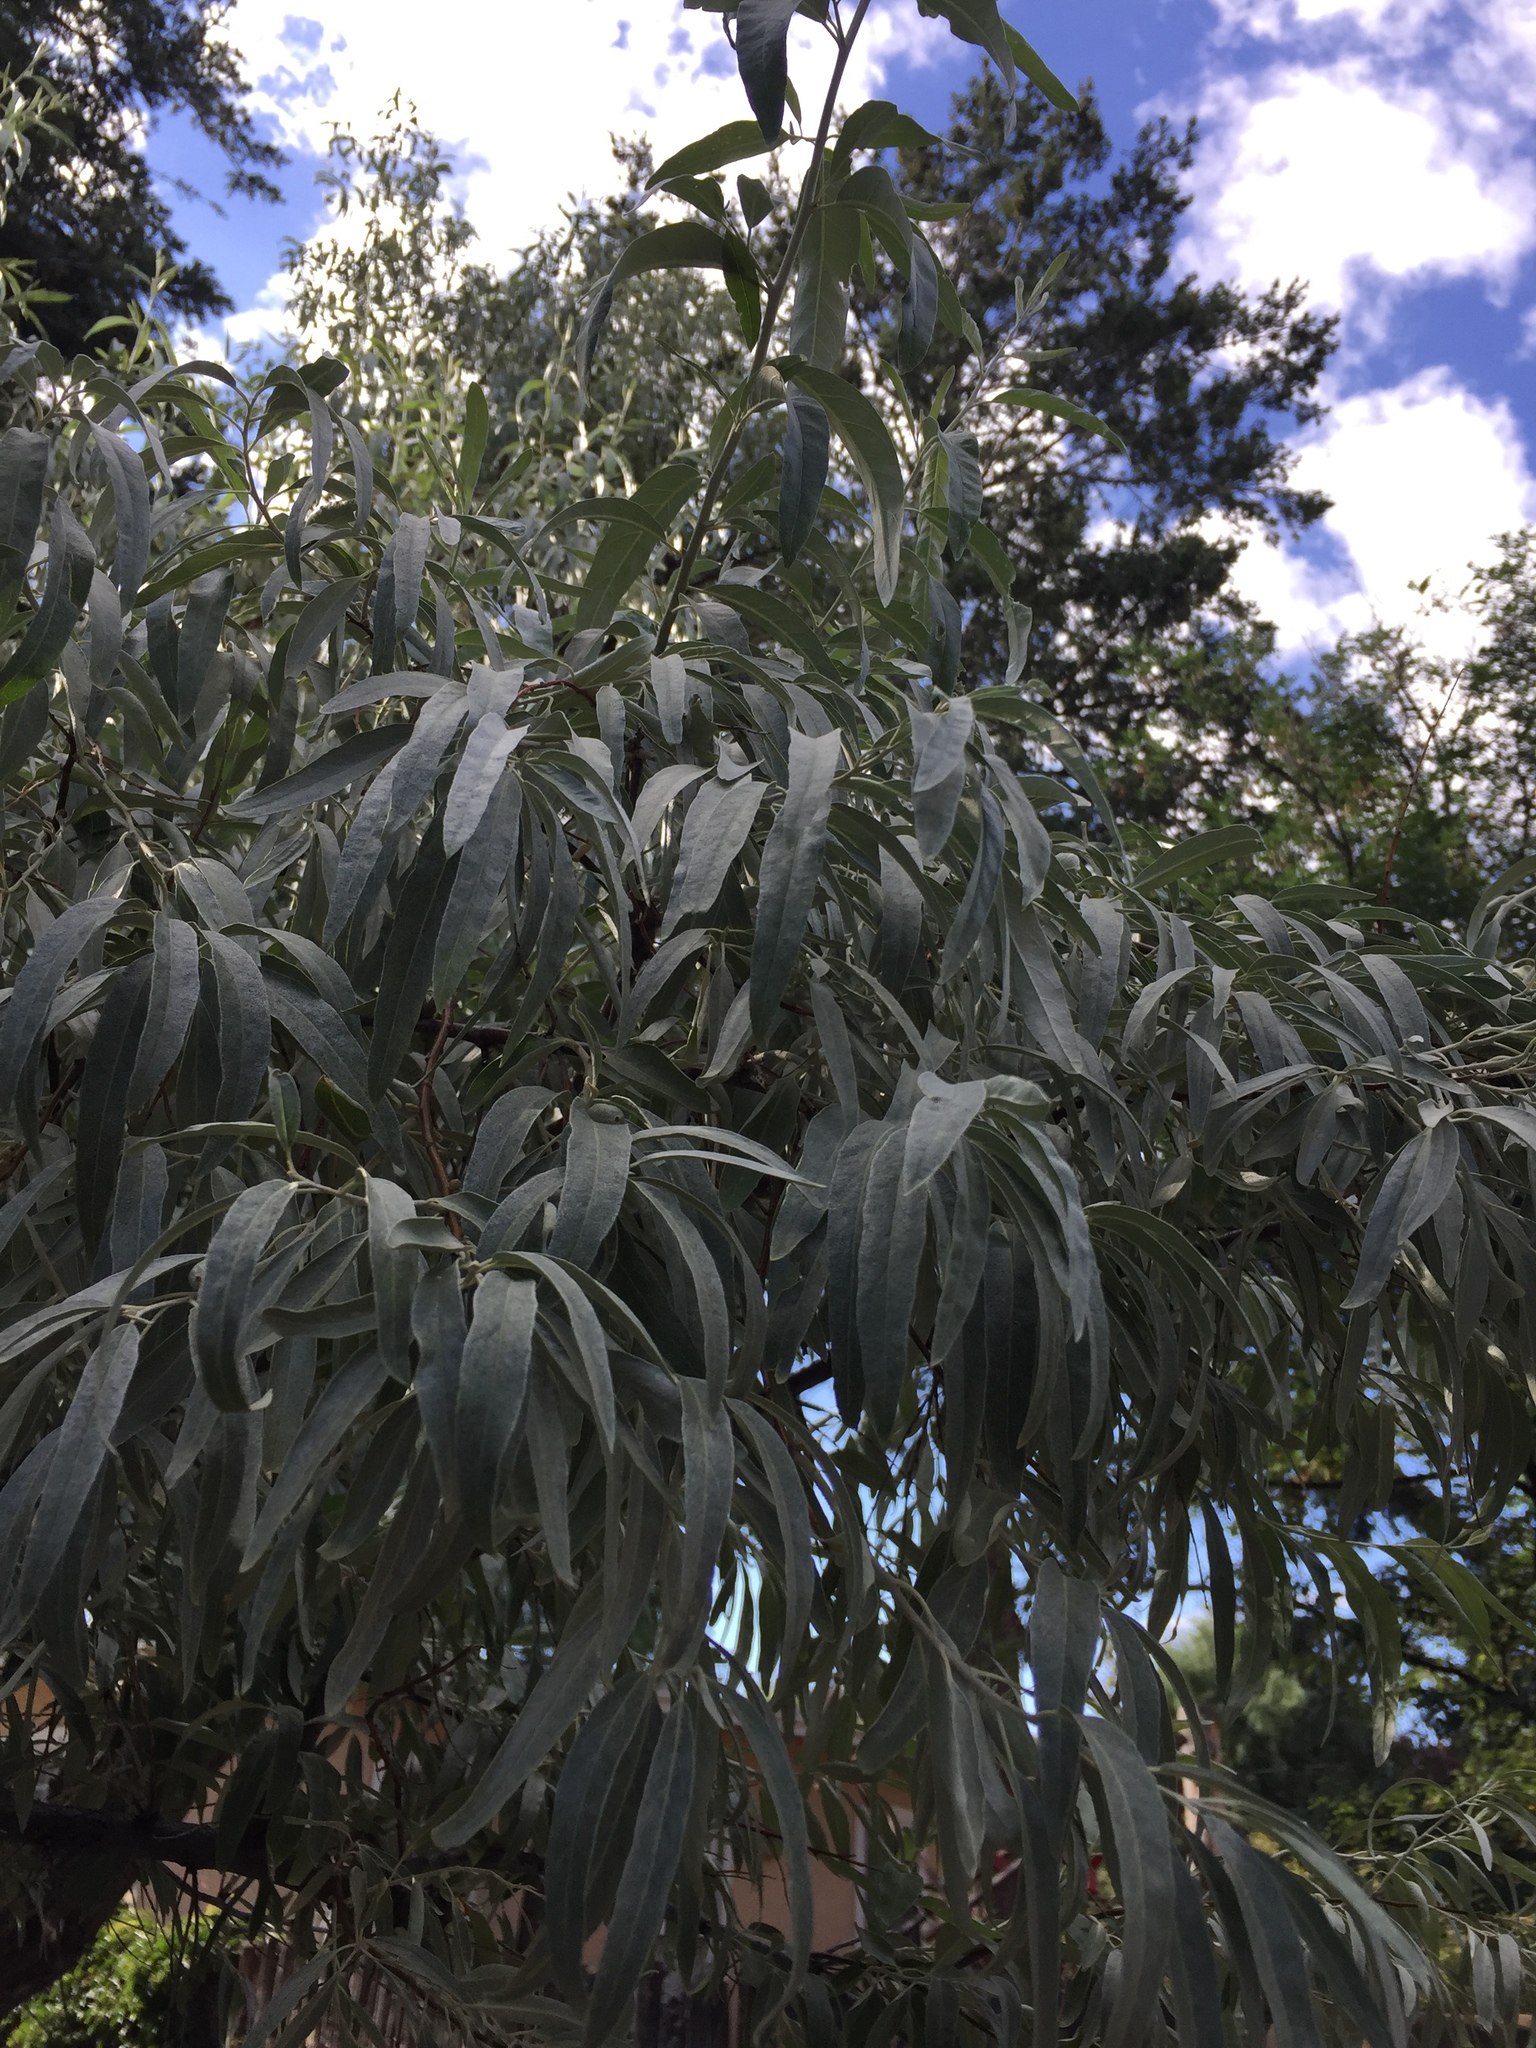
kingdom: Plantae
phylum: Tracheophyta
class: Magnoliopsida
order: Rosales
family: Elaeagnaceae
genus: Elaeagnus
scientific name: Elaeagnus angustifolia
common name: Russian olive
